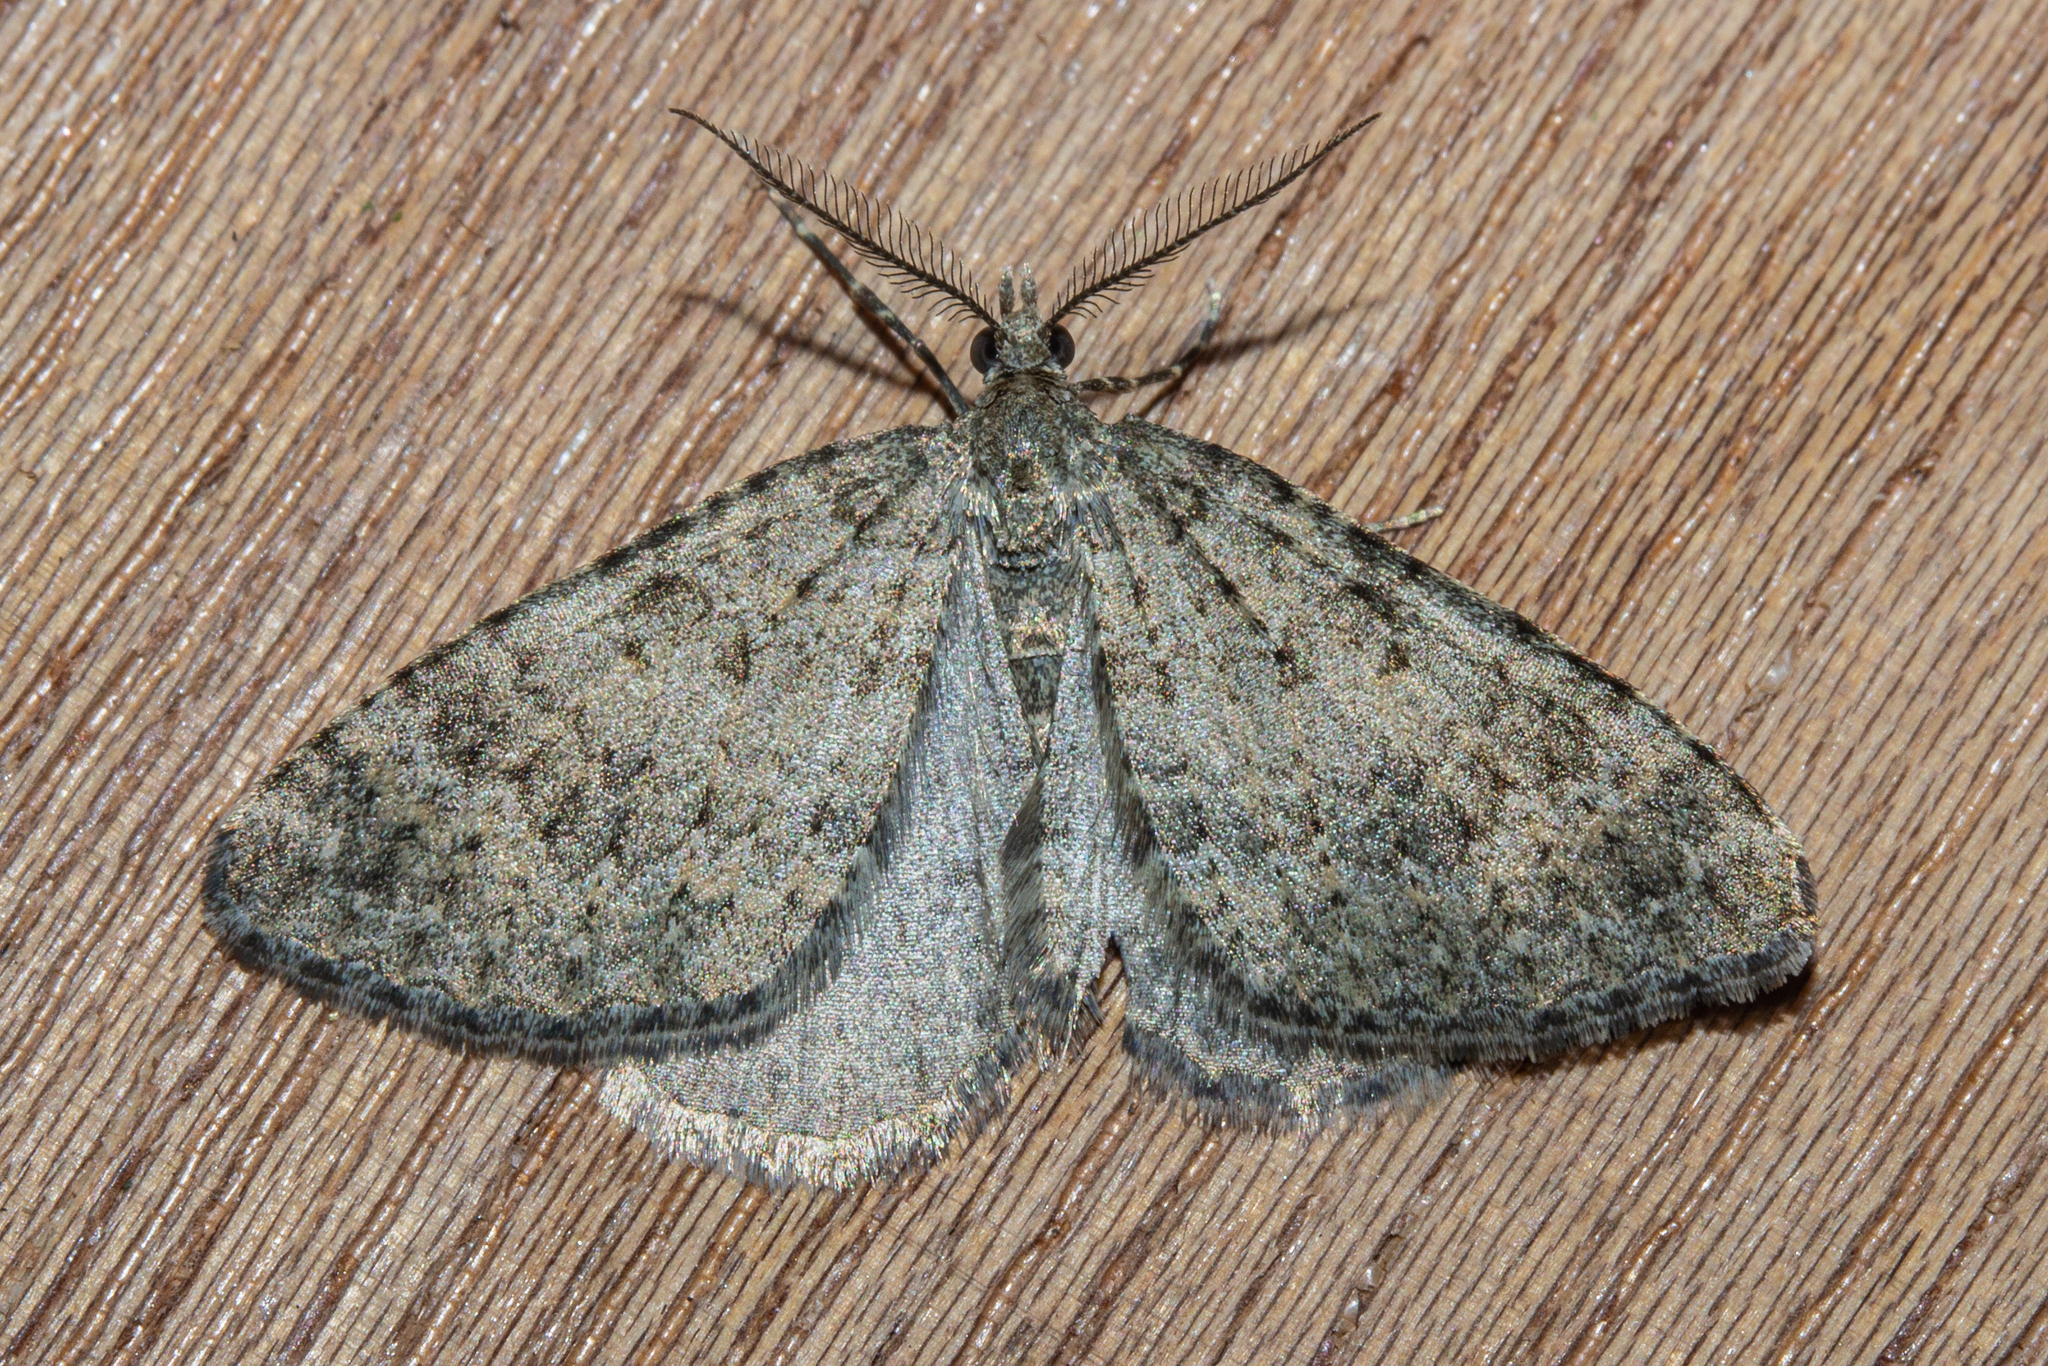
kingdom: Animalia
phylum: Arthropoda
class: Insecta
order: Lepidoptera
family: Geometridae
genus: Helastia
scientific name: Helastia corcularia
